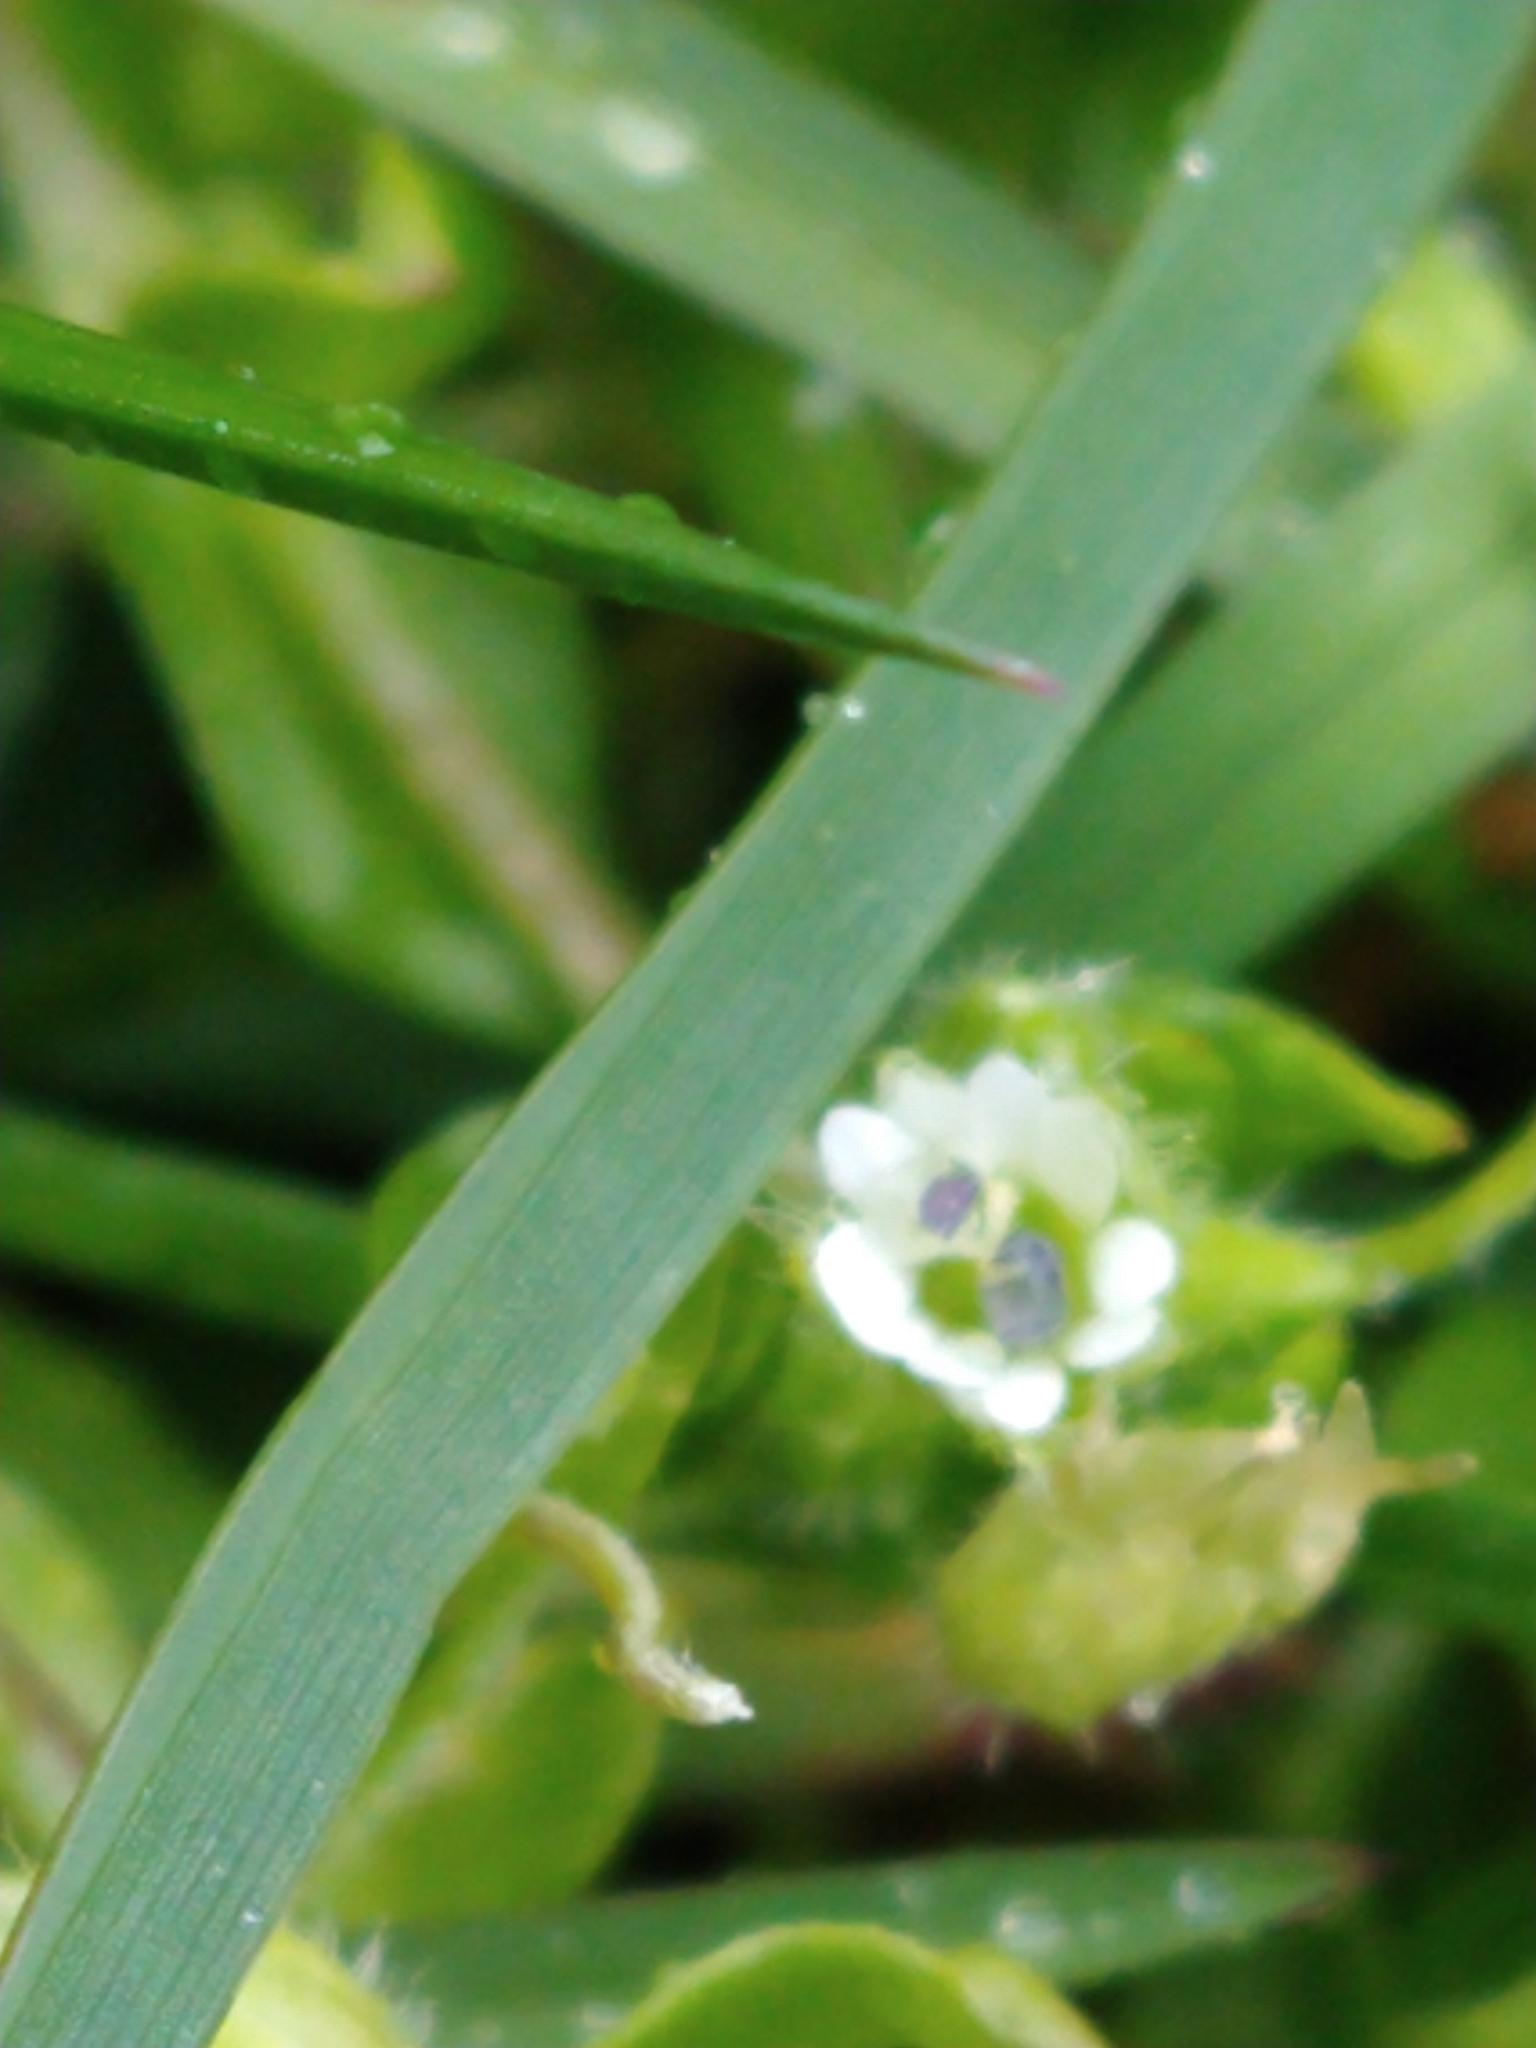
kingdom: Plantae
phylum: Tracheophyta
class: Magnoliopsida
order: Caryophyllales
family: Caryophyllaceae
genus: Stellaria
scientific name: Stellaria media
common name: Common chickweed
